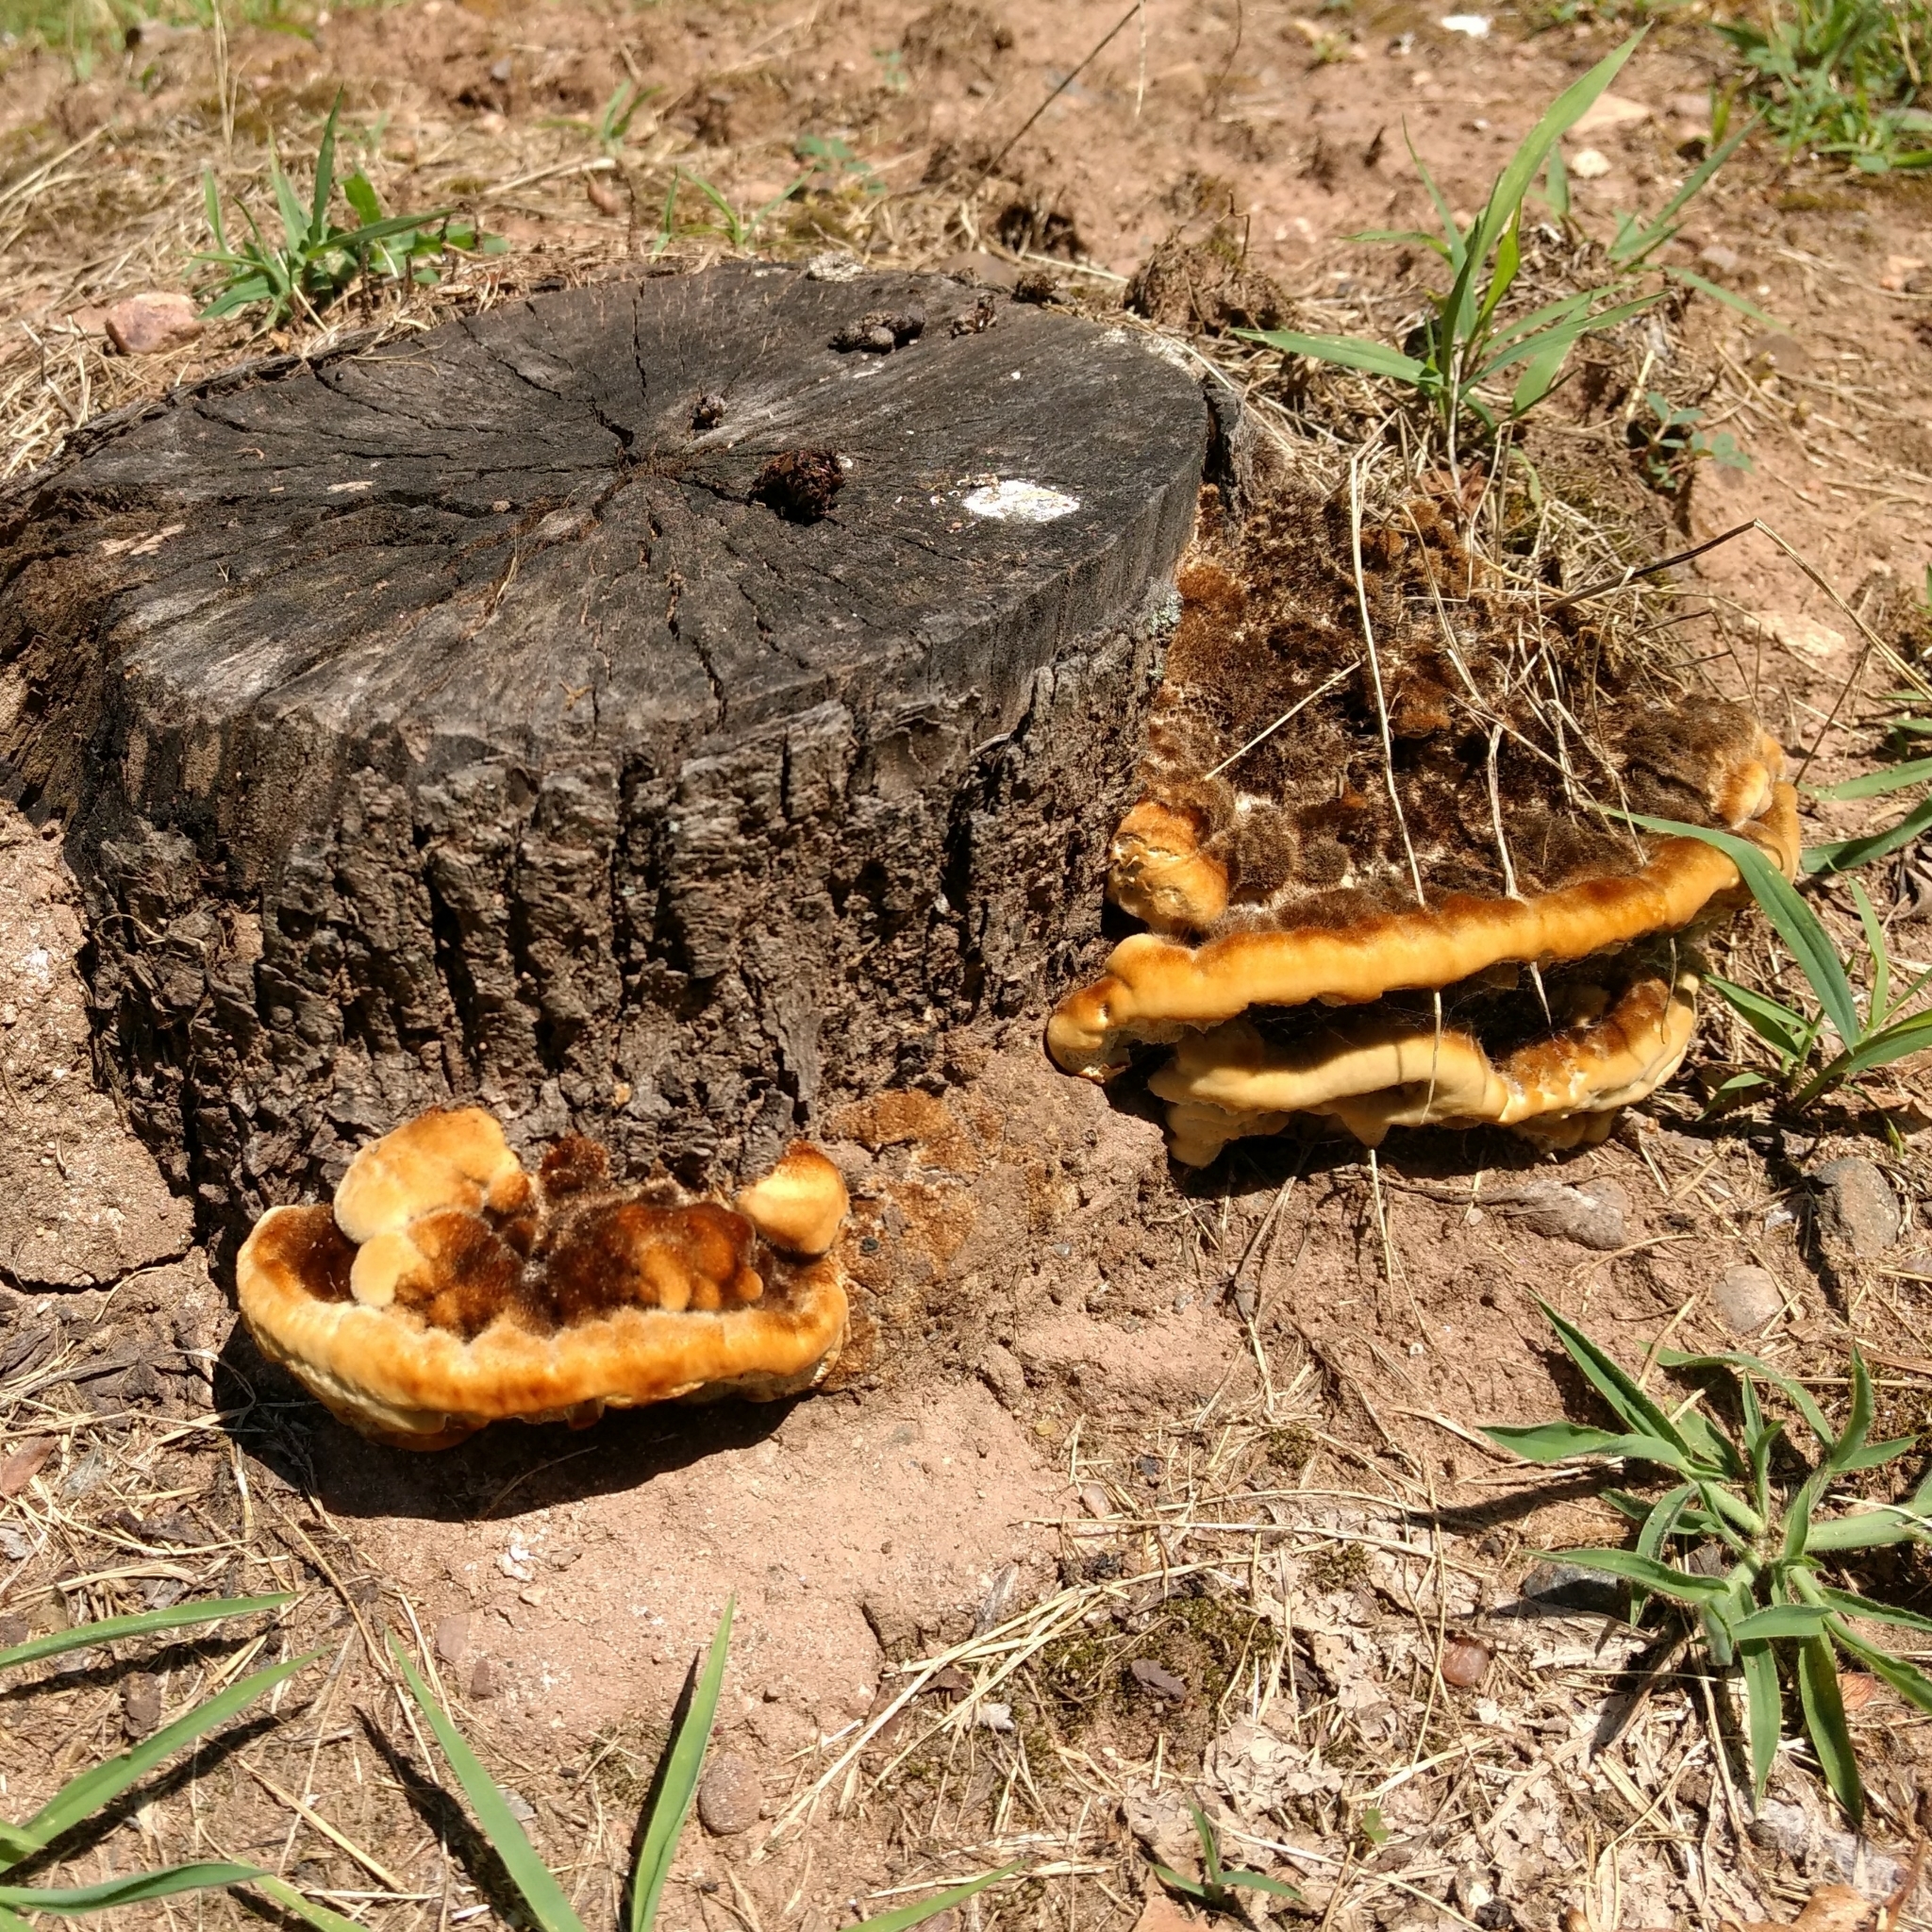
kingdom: Fungi
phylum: Basidiomycota
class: Agaricomycetes
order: Polyporales
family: Laetiporaceae
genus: Phaeolus
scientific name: Phaeolus schweinitzii
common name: Dyer's mazegill
